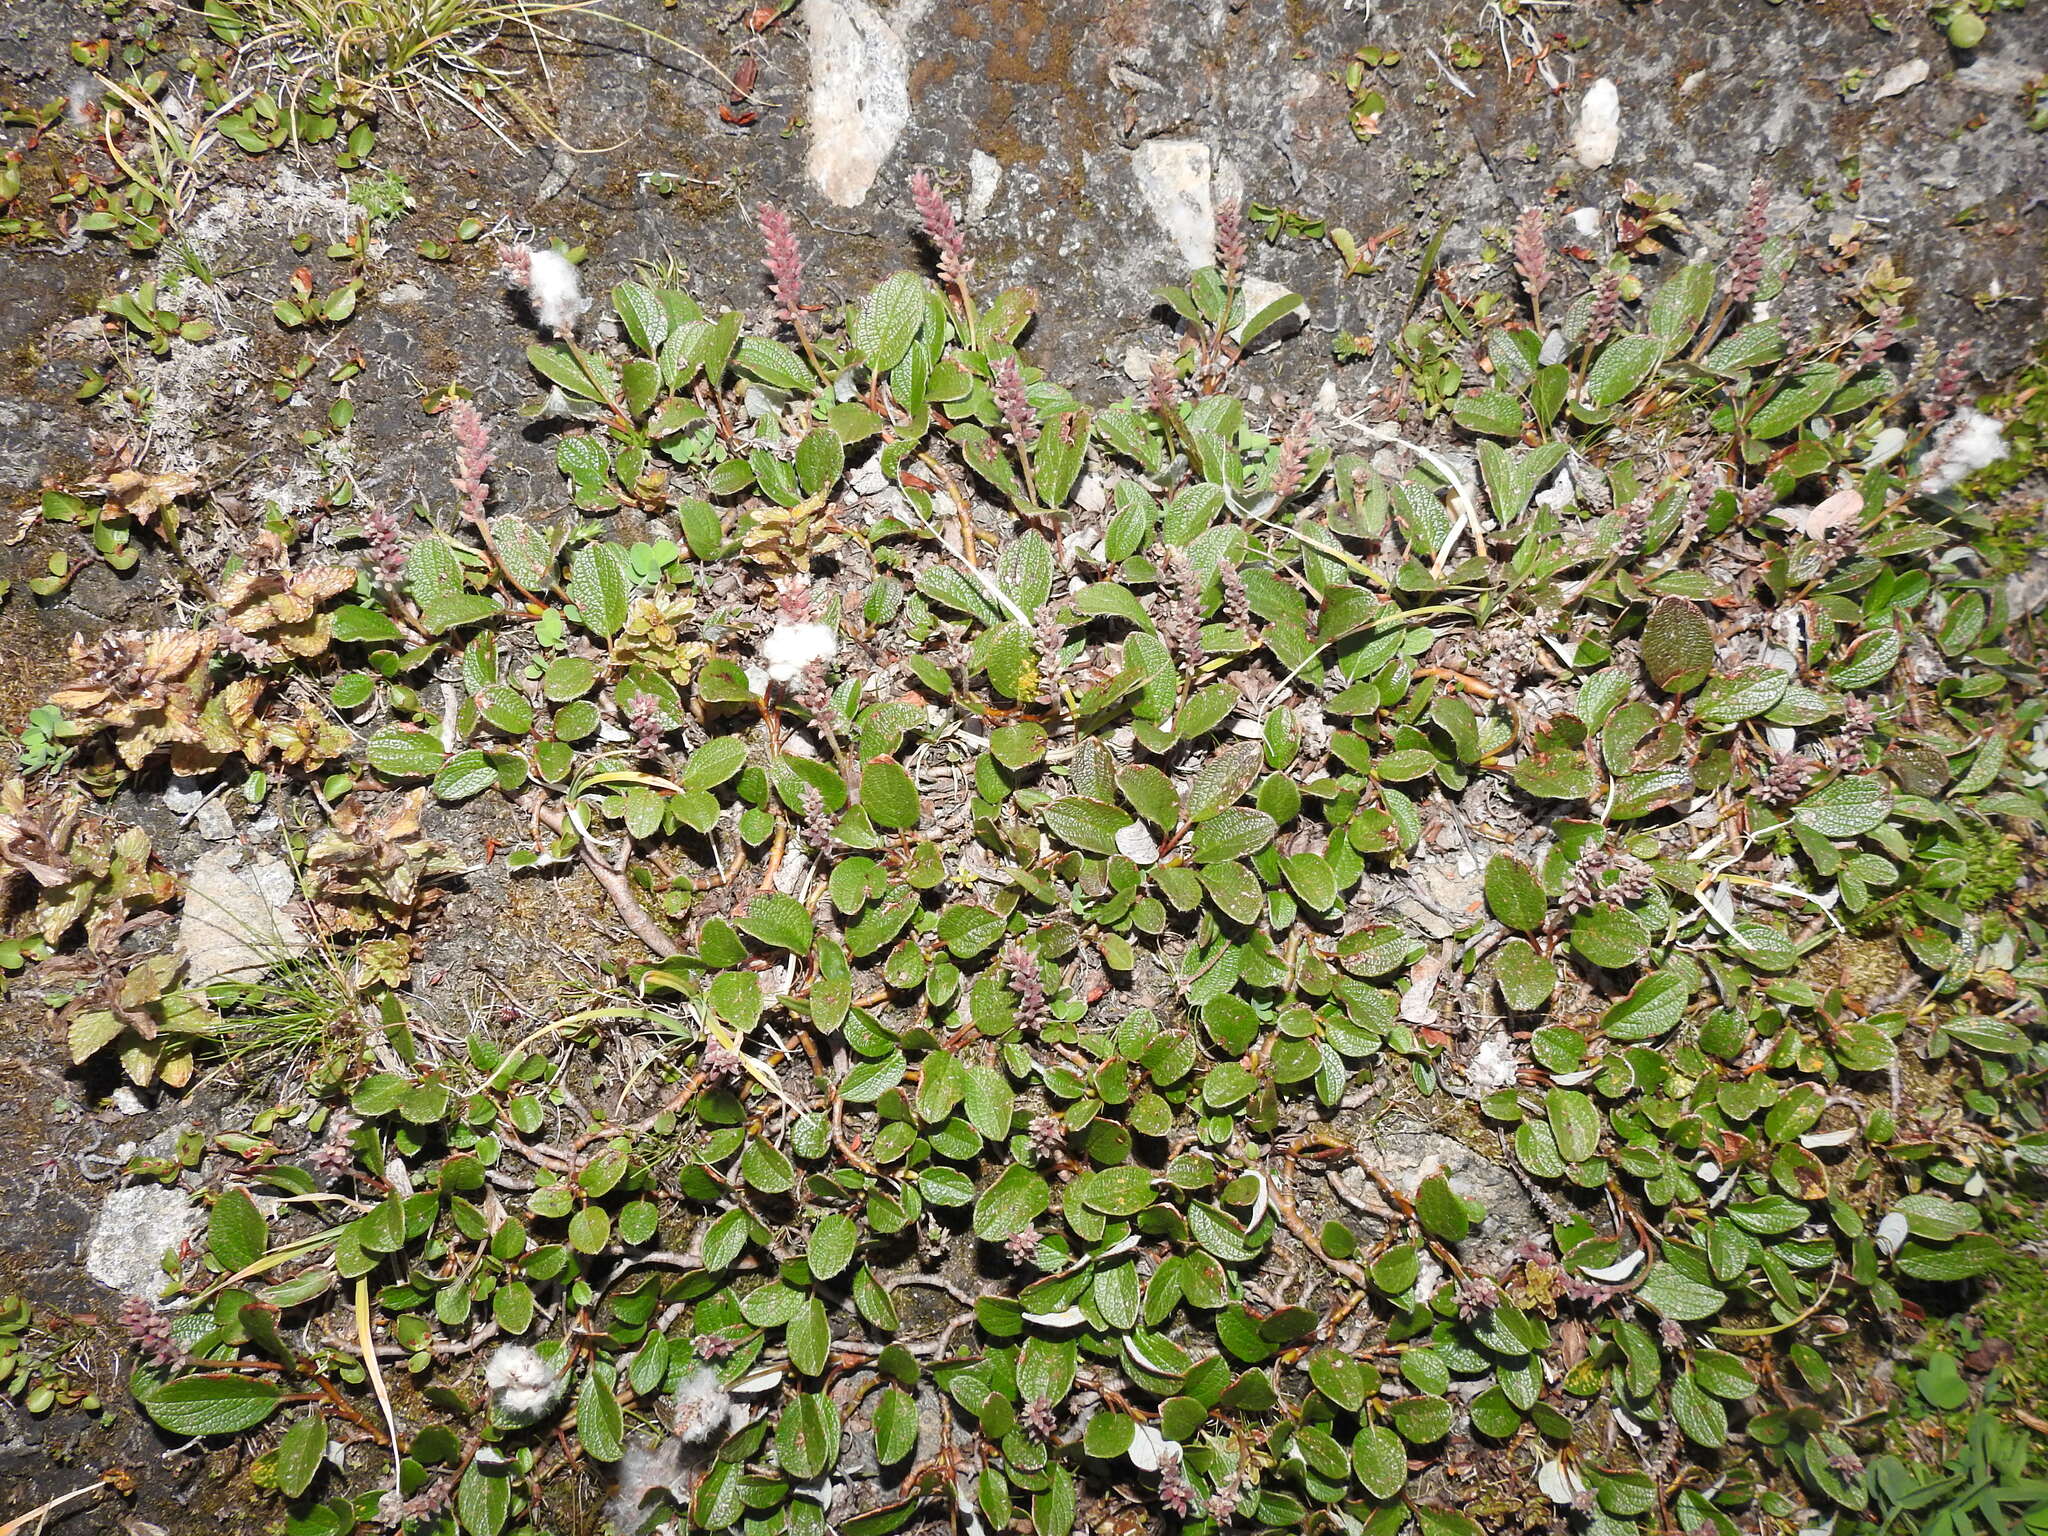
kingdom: Plantae
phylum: Tracheophyta
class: Magnoliopsida
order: Malpighiales
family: Salicaceae
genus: Salix
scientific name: Salix reticulata
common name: Net-leaved willow
